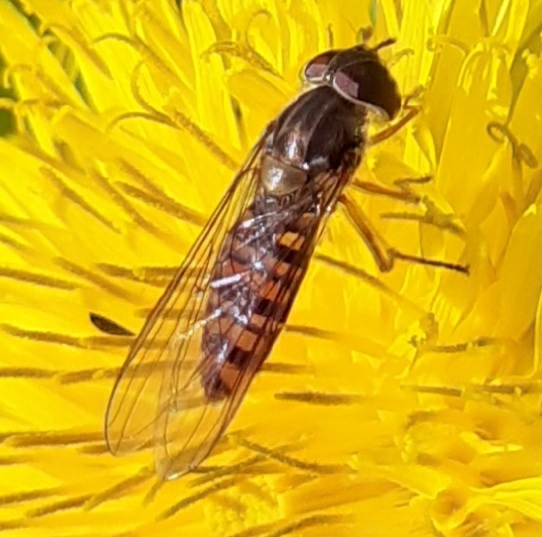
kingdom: Animalia
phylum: Arthropoda
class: Insecta
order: Diptera
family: Syrphidae
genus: Episyrphus
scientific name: Episyrphus balteatus
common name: Marmalade hoverfly
